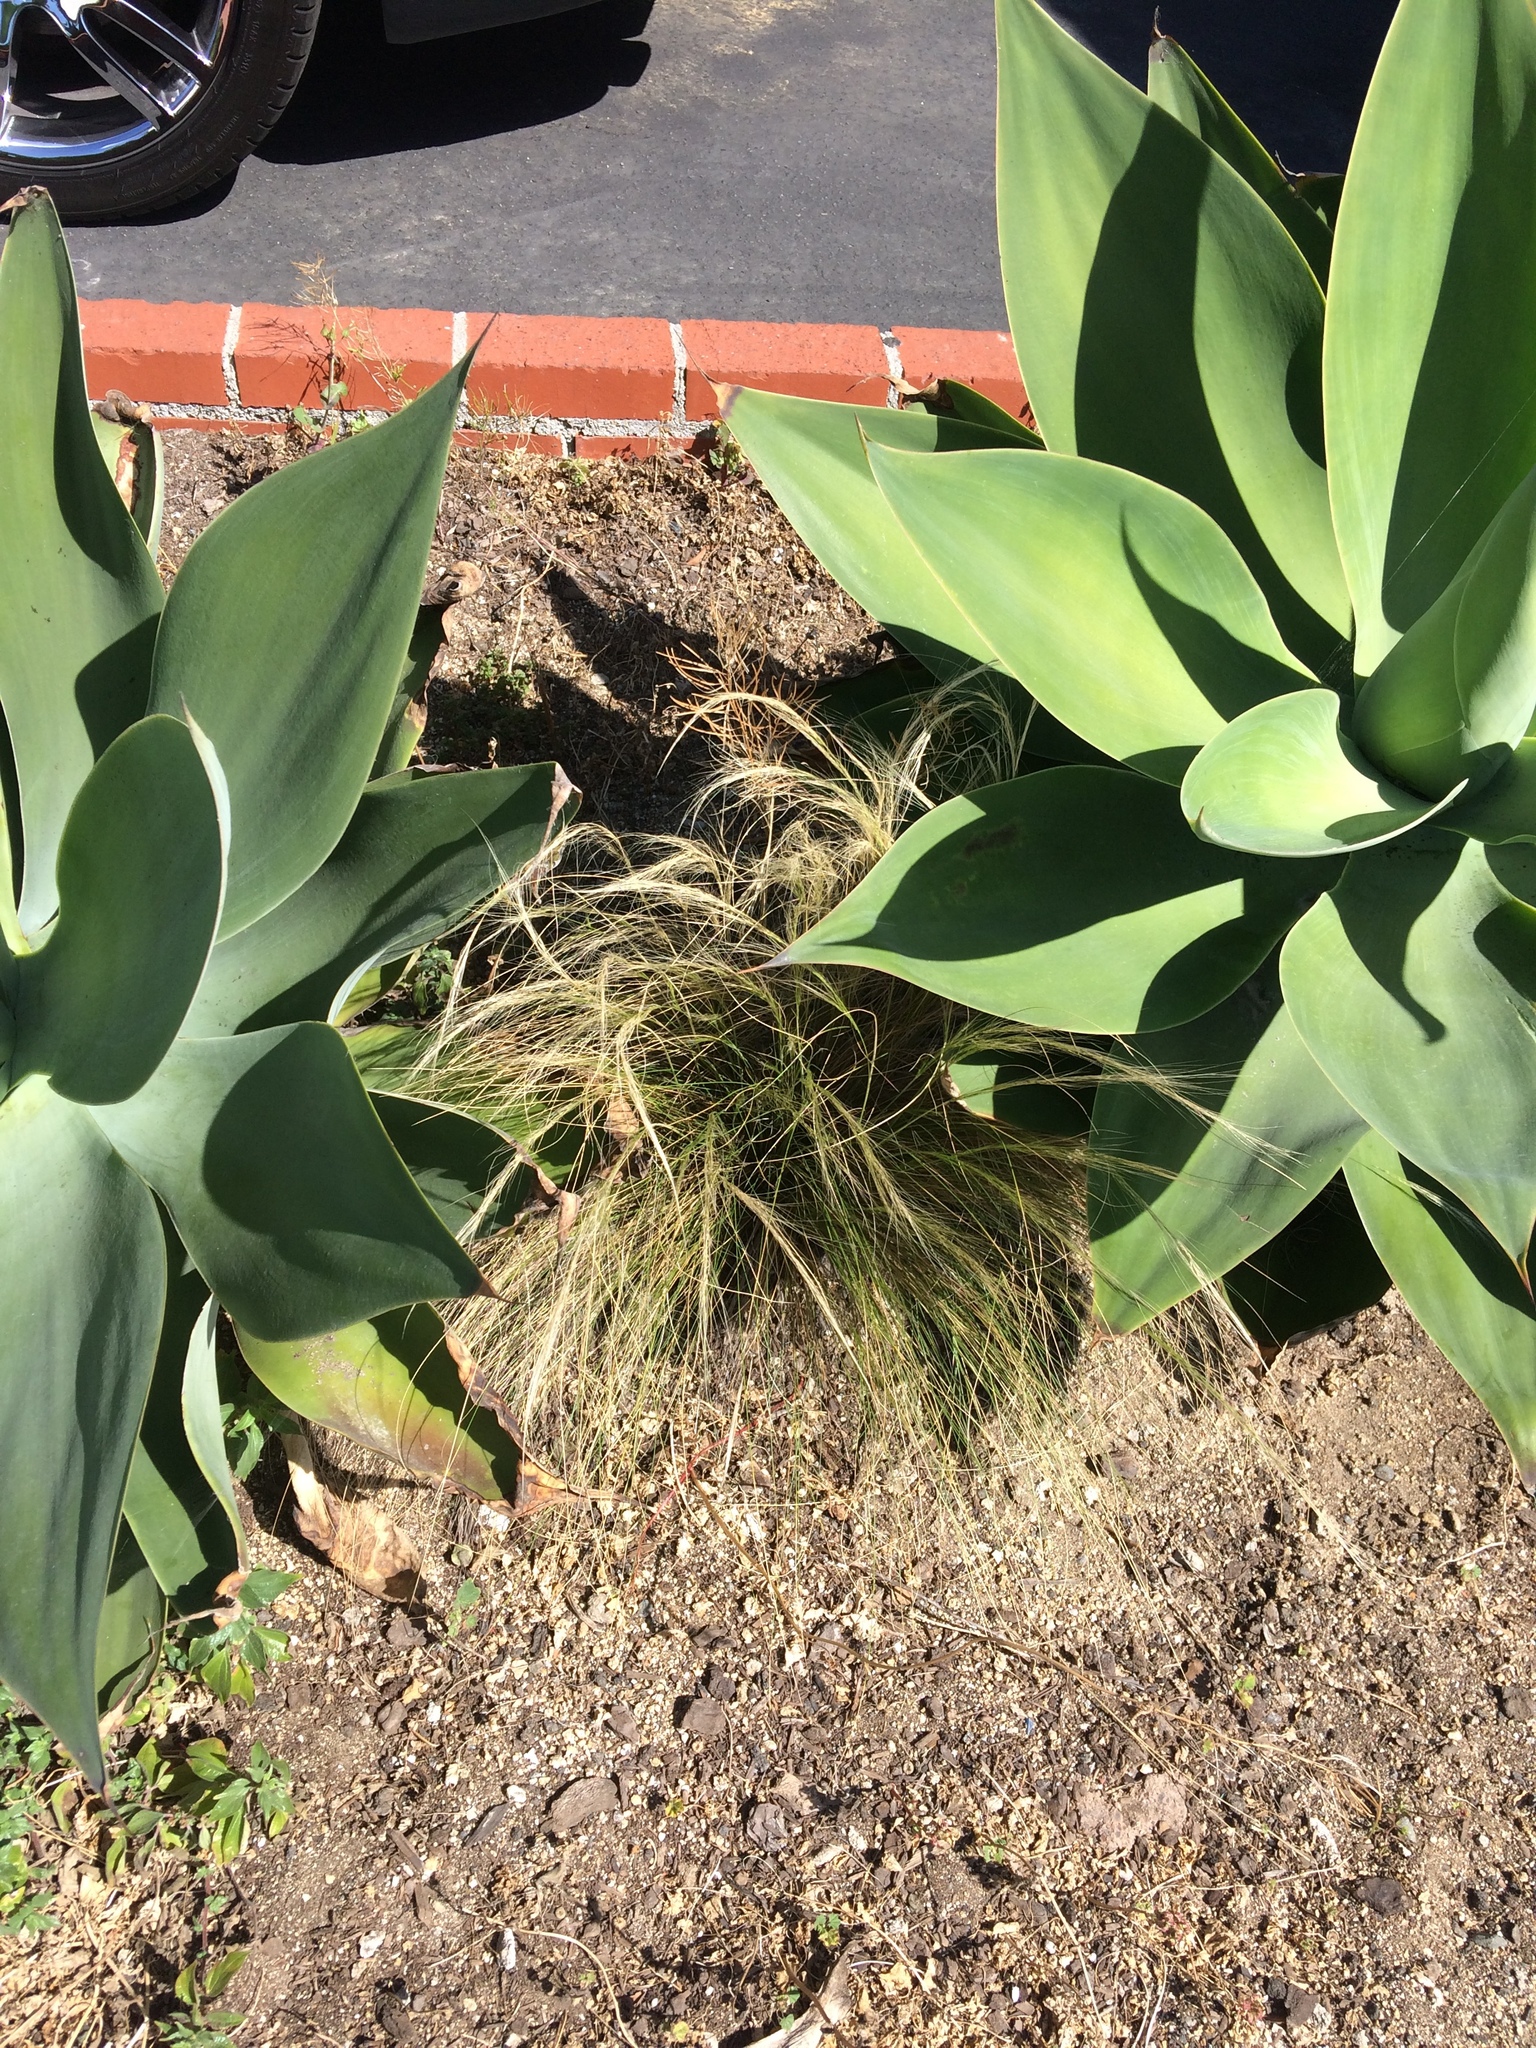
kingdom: Plantae
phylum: Tracheophyta
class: Liliopsida
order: Poales
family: Poaceae
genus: Nassella
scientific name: Nassella tenuissima
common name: Argentine needlegrass
